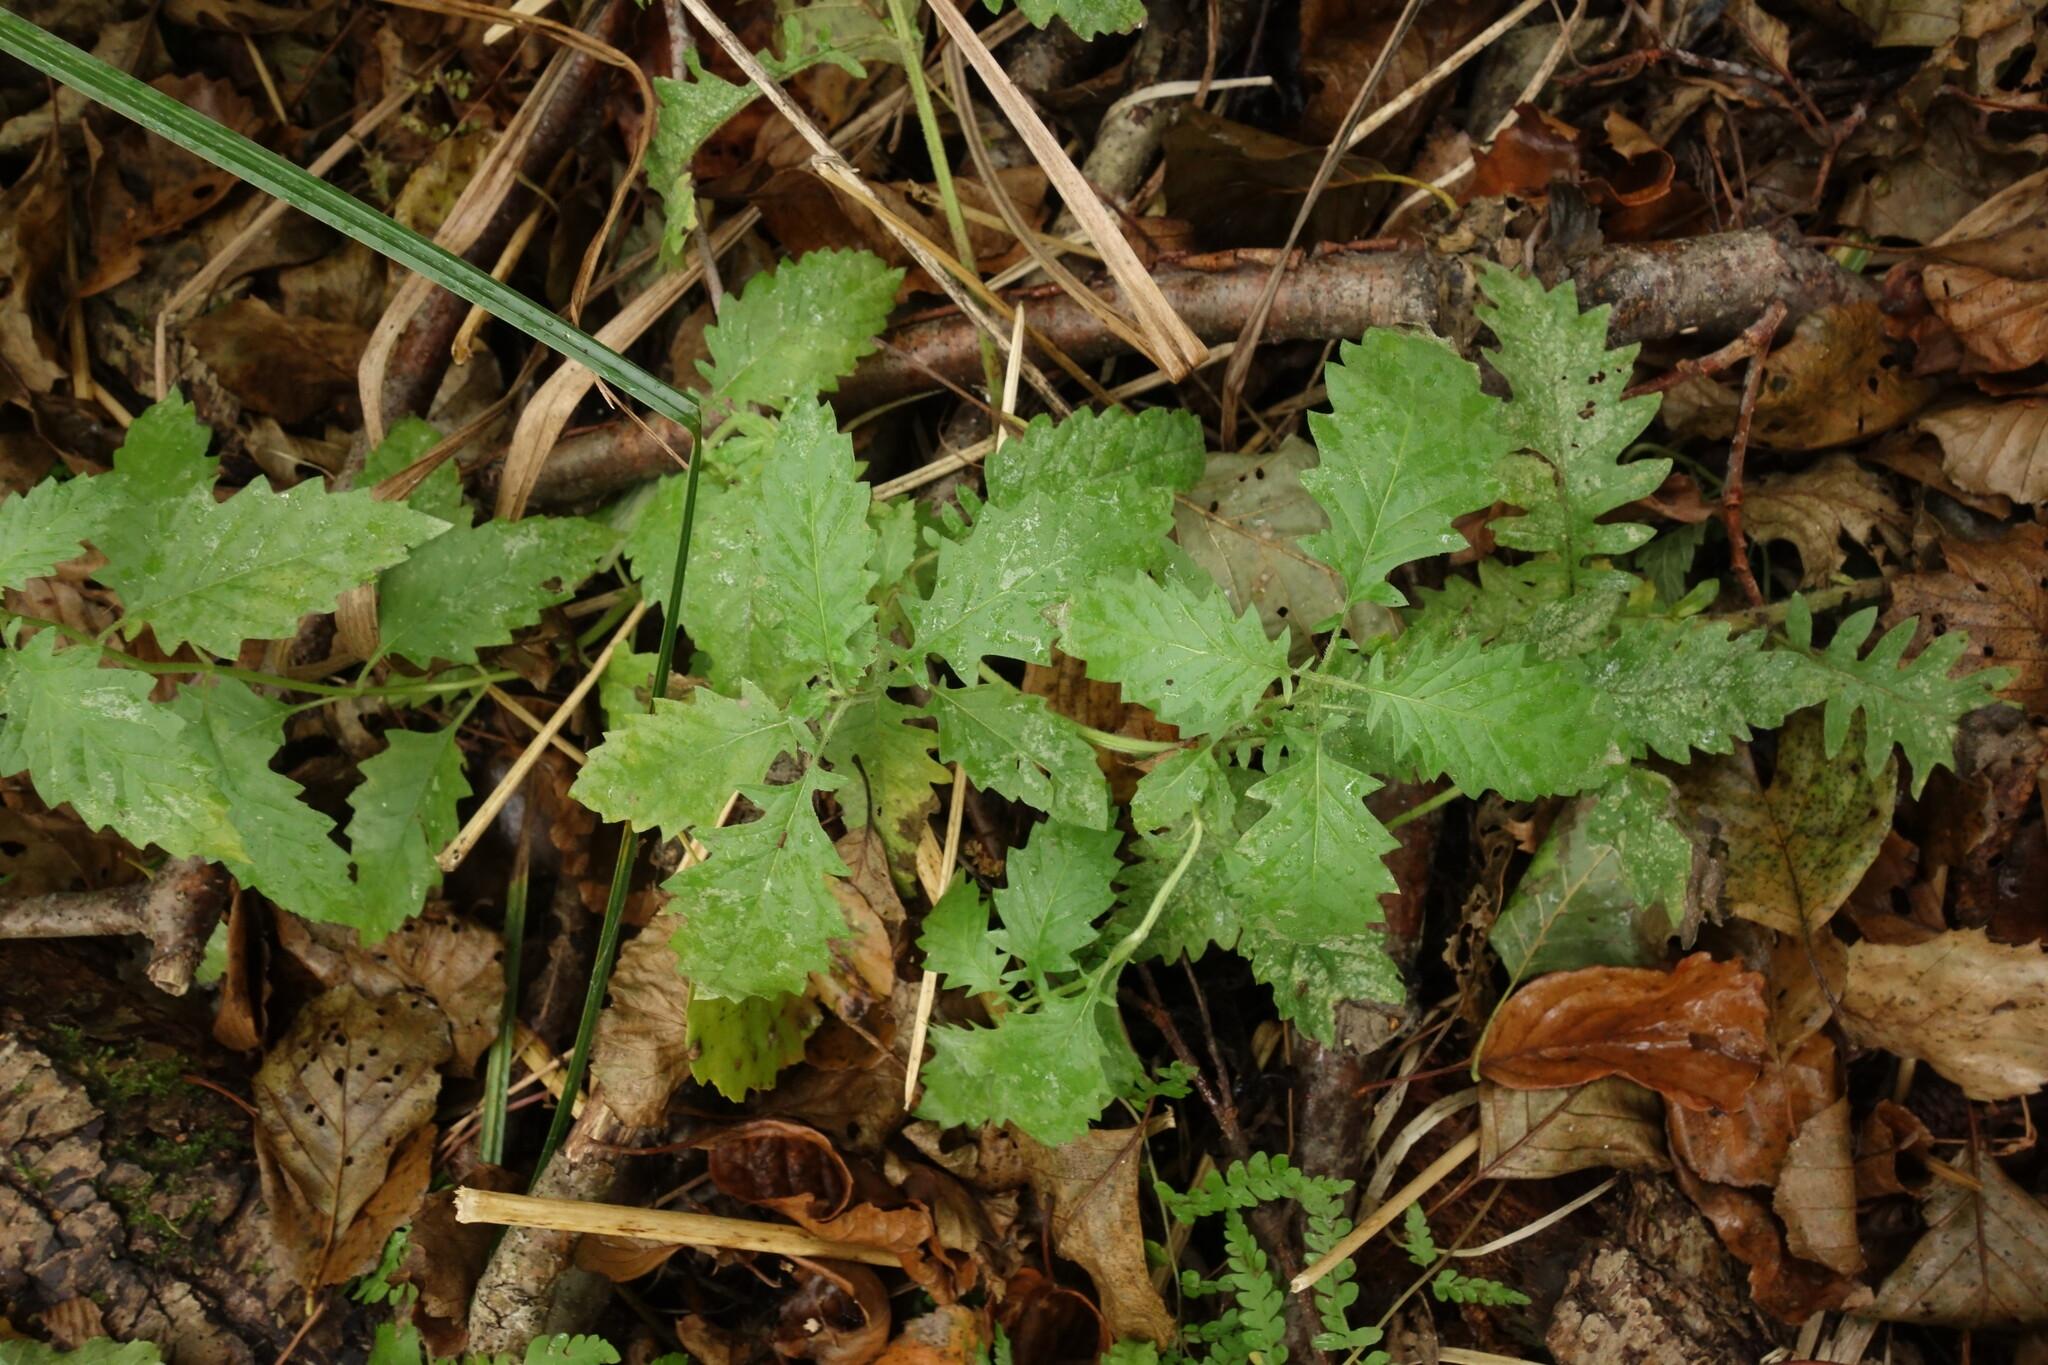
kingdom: Plantae
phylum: Tracheophyta
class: Magnoliopsida
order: Lamiales
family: Lamiaceae
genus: Lycopus
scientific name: Lycopus europaeus
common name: European bugleweed
